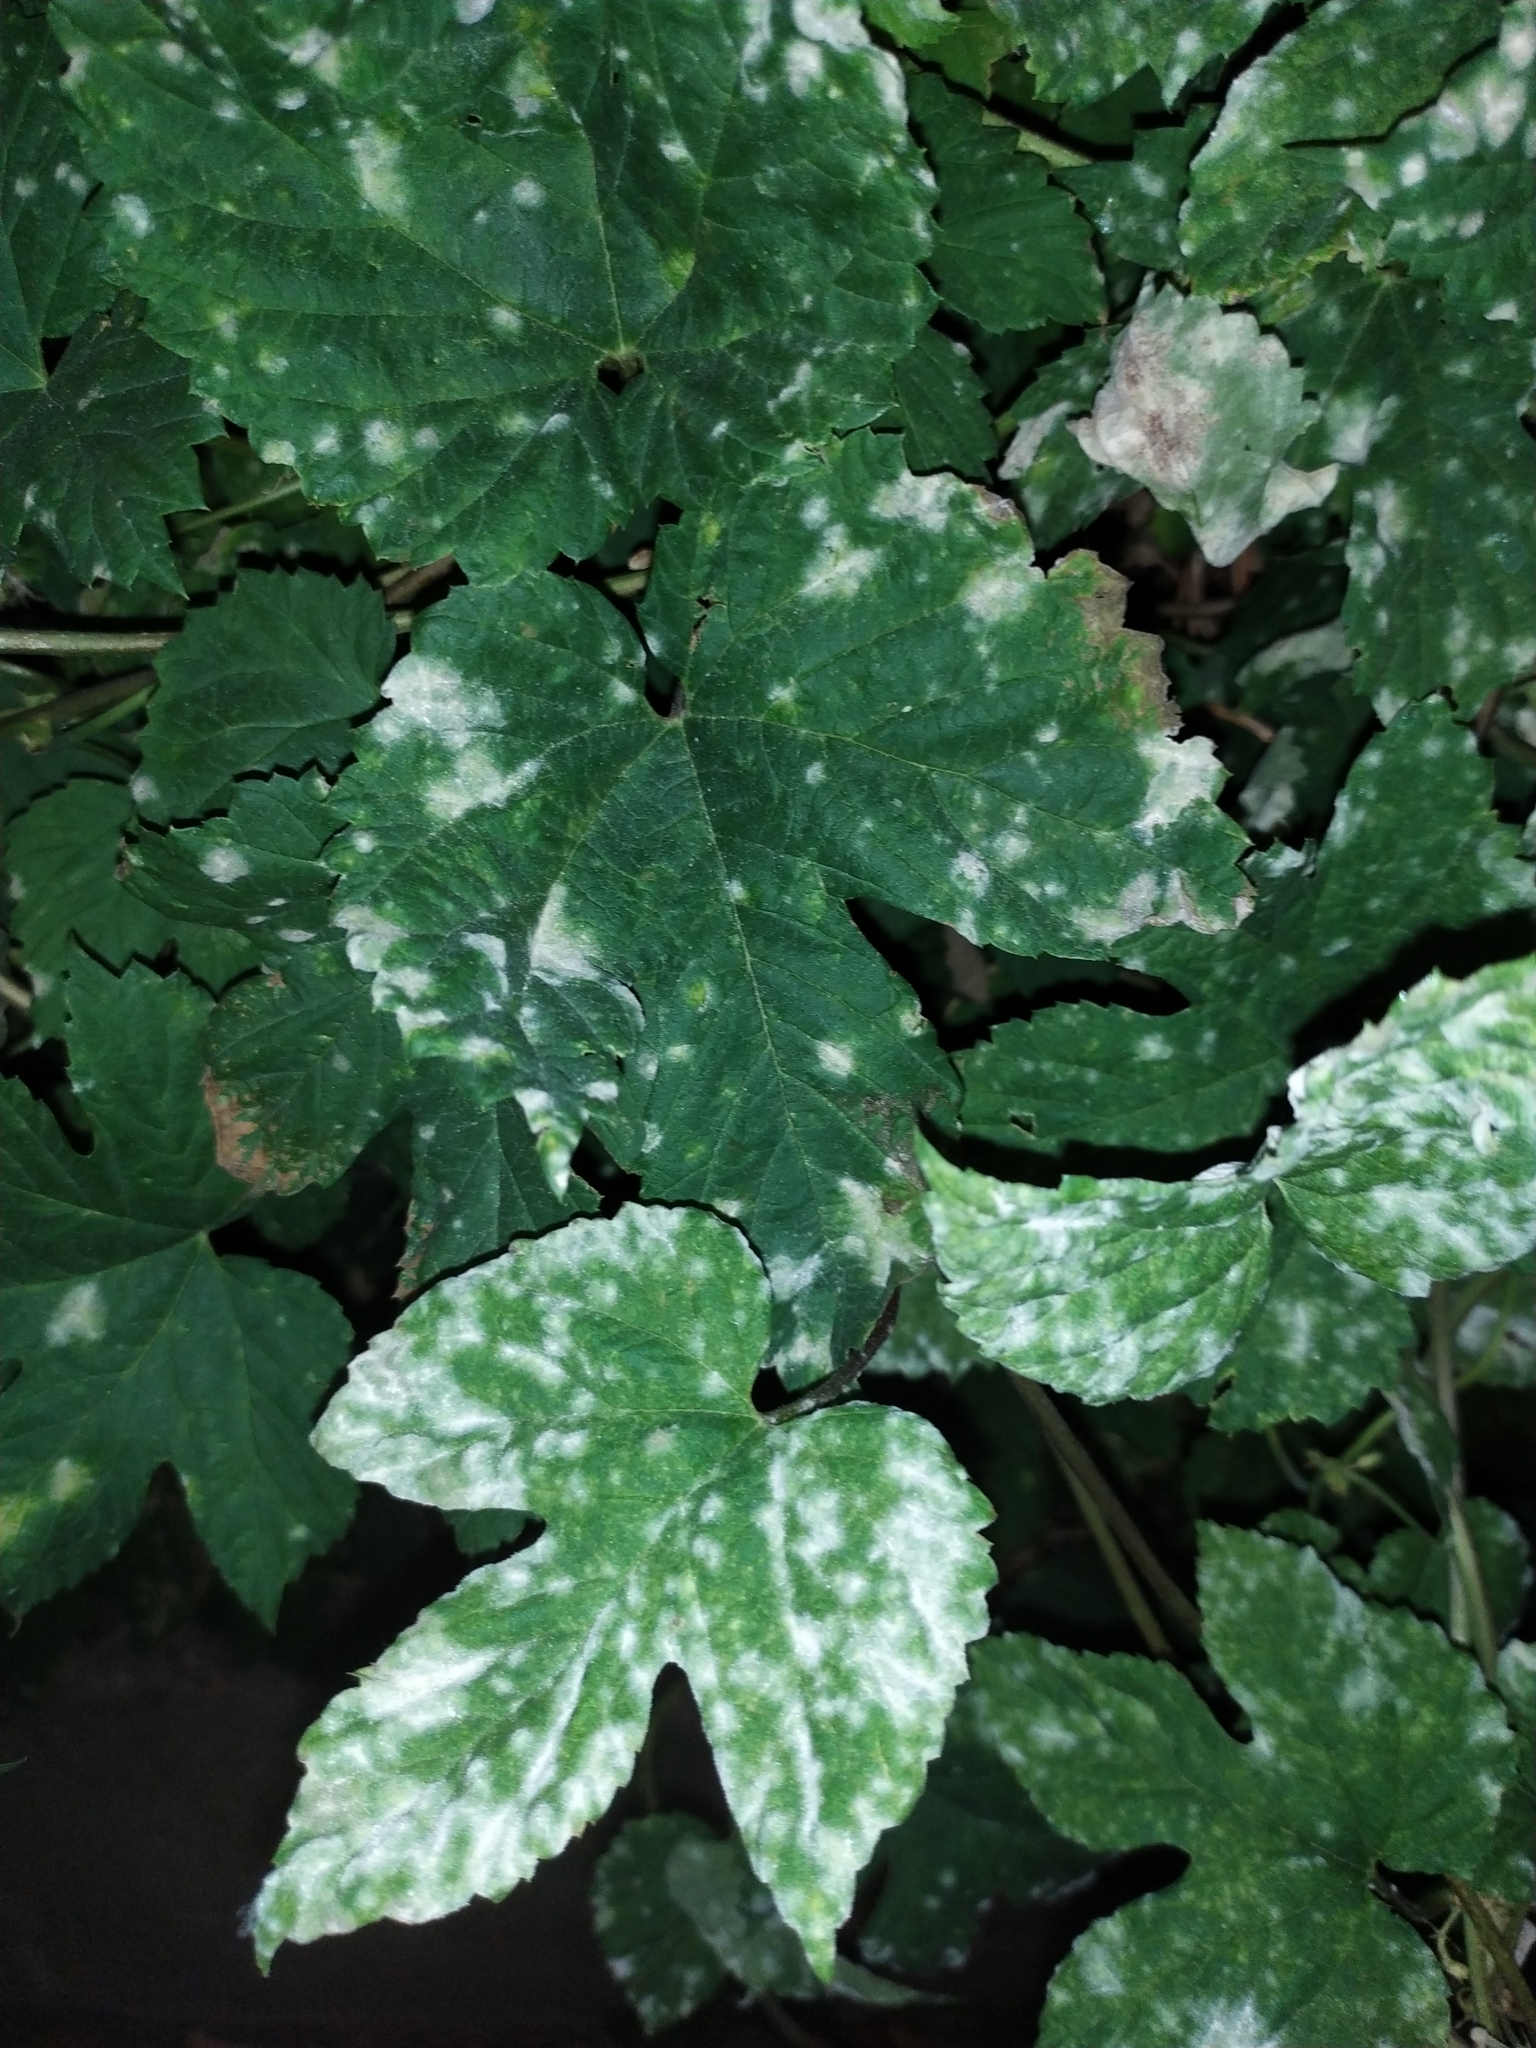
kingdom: Fungi
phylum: Ascomycota
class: Leotiomycetes
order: Helotiales
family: Erysiphaceae
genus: Podosphaera
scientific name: Podosphaera macularis
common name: Powdery mildew
